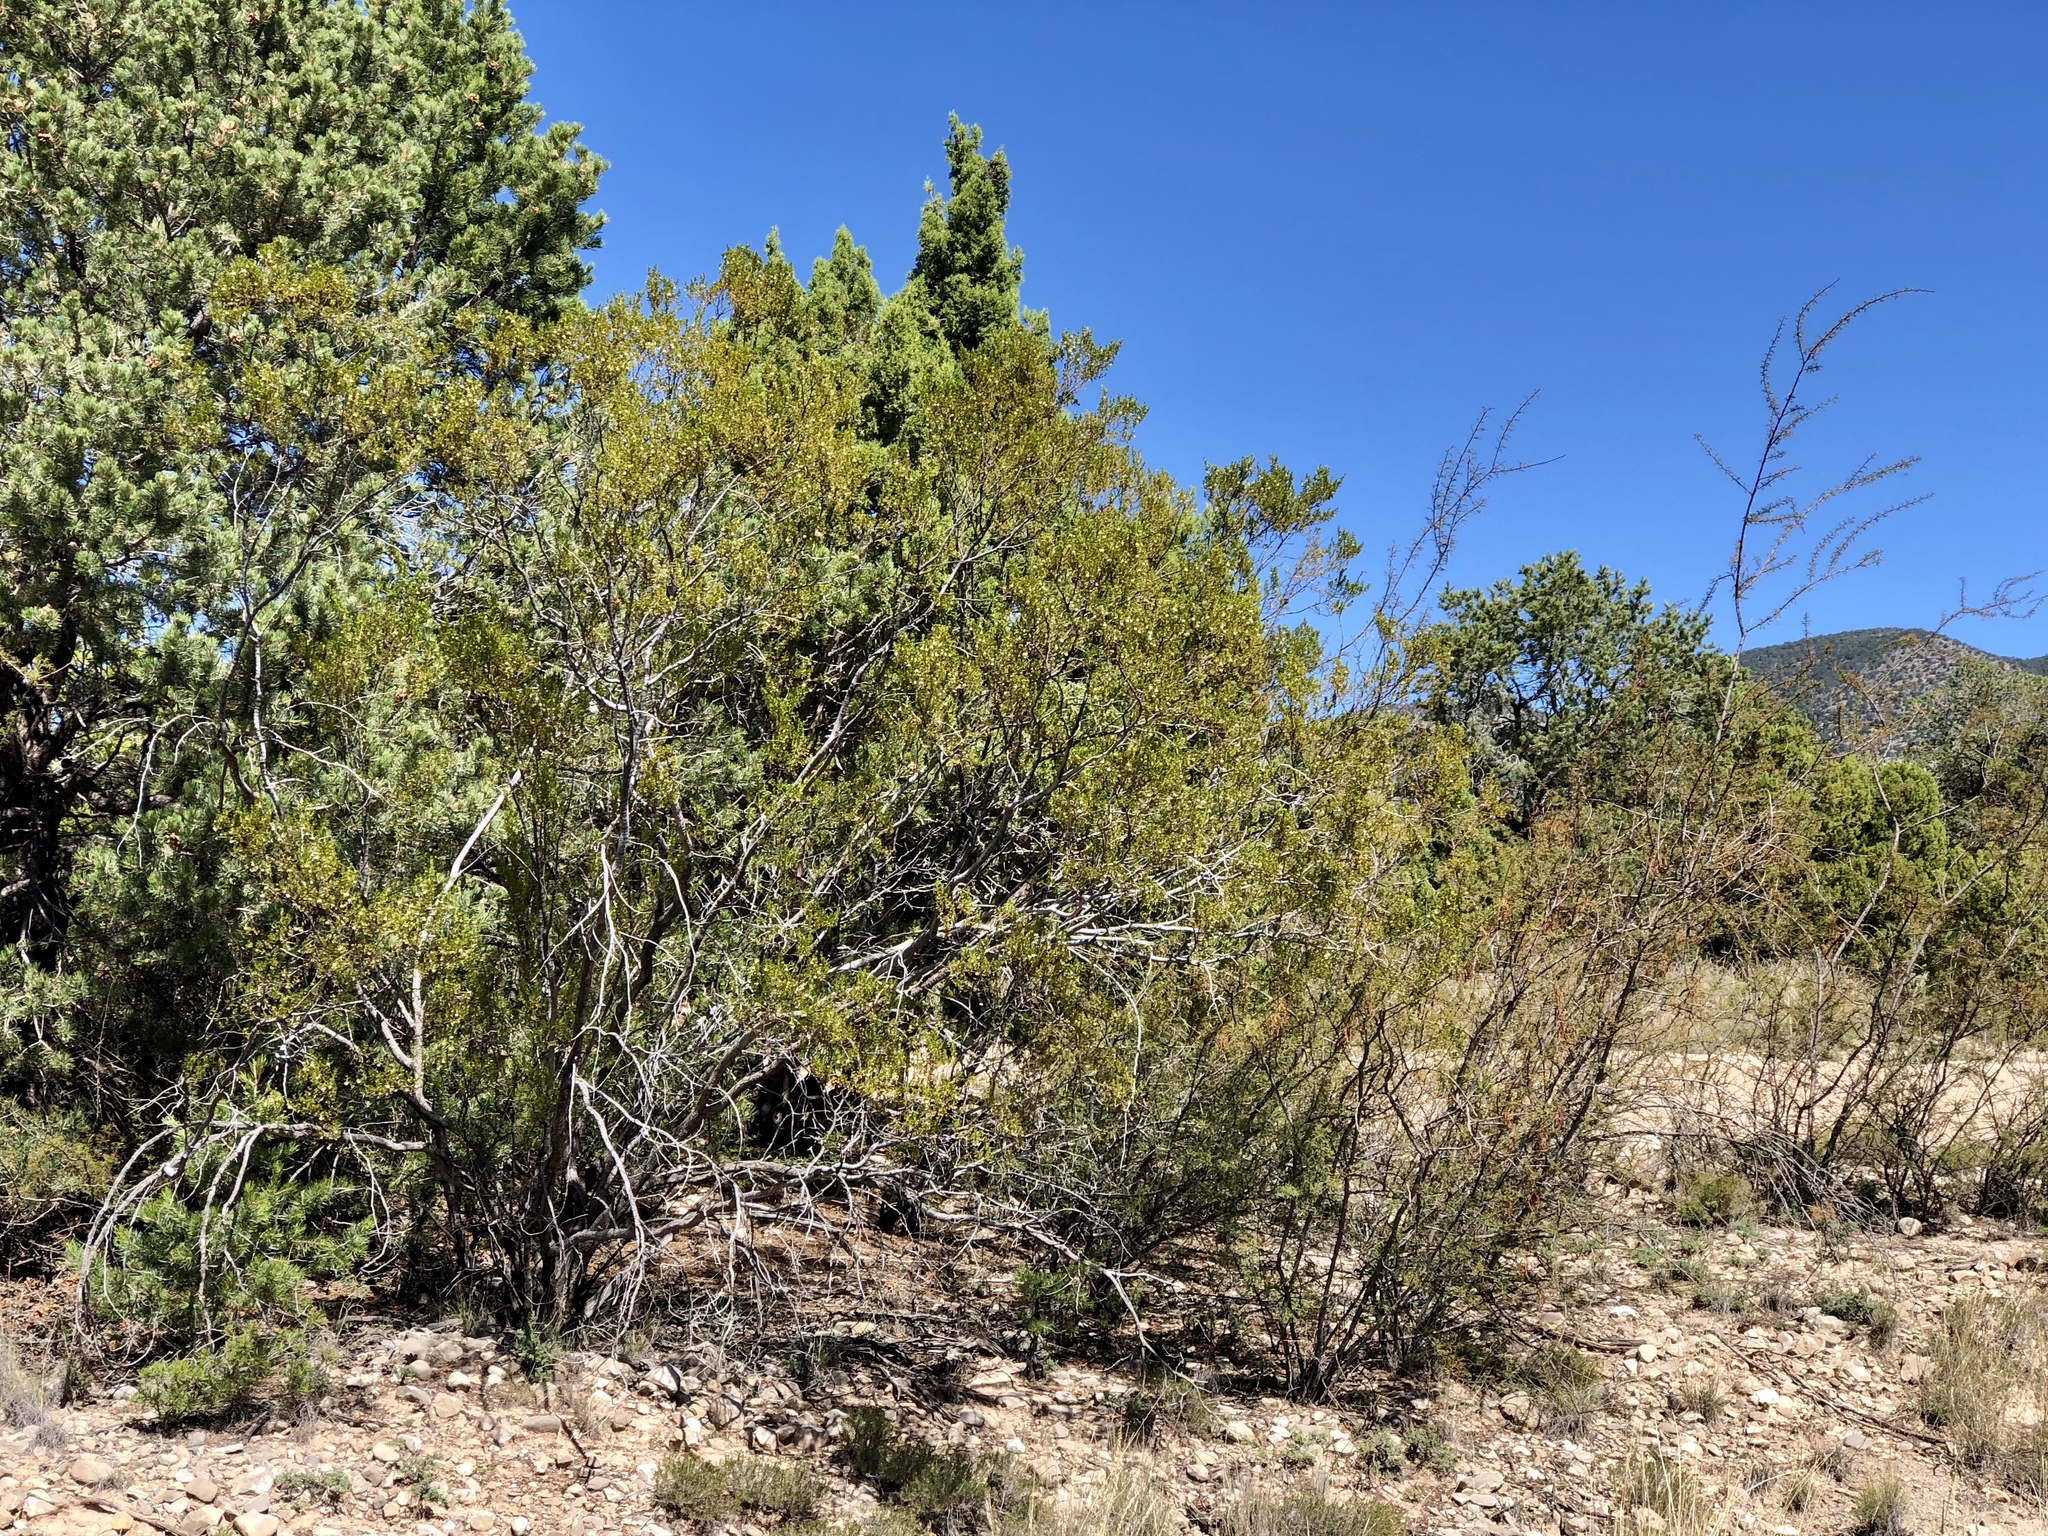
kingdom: Plantae
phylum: Tracheophyta
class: Magnoliopsida
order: Zygophyllales
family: Zygophyllaceae
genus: Larrea
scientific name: Larrea tridentata
